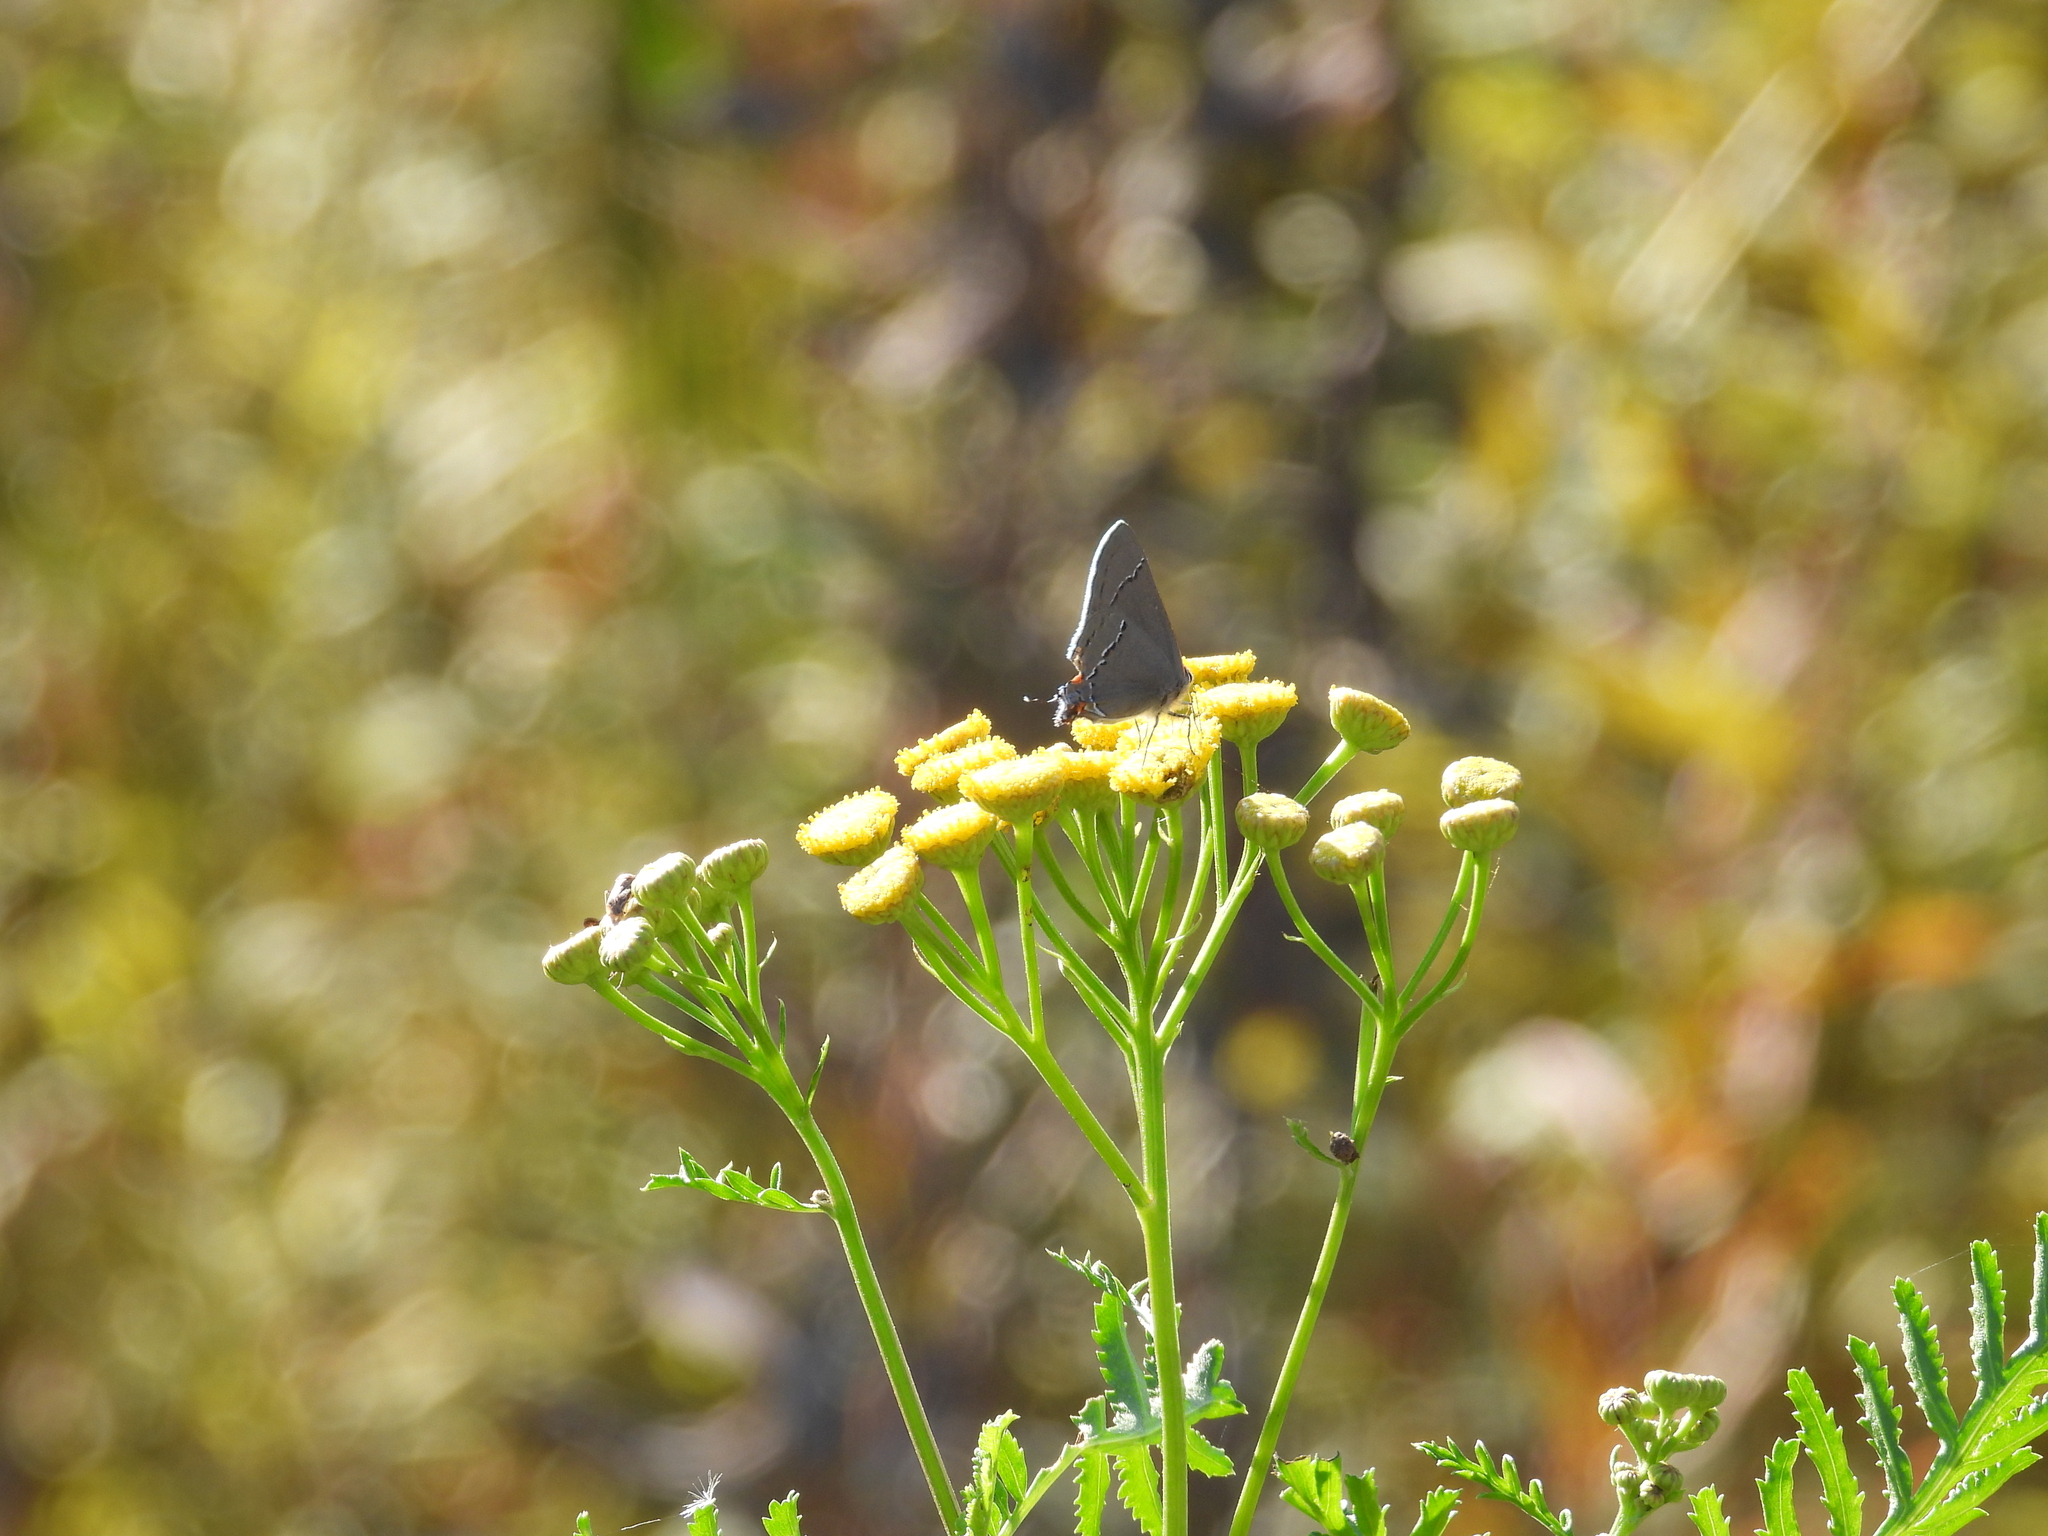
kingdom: Animalia
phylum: Arthropoda
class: Insecta
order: Lepidoptera
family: Lycaenidae
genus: Strymon
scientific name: Strymon melinus
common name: Gray hairstreak
